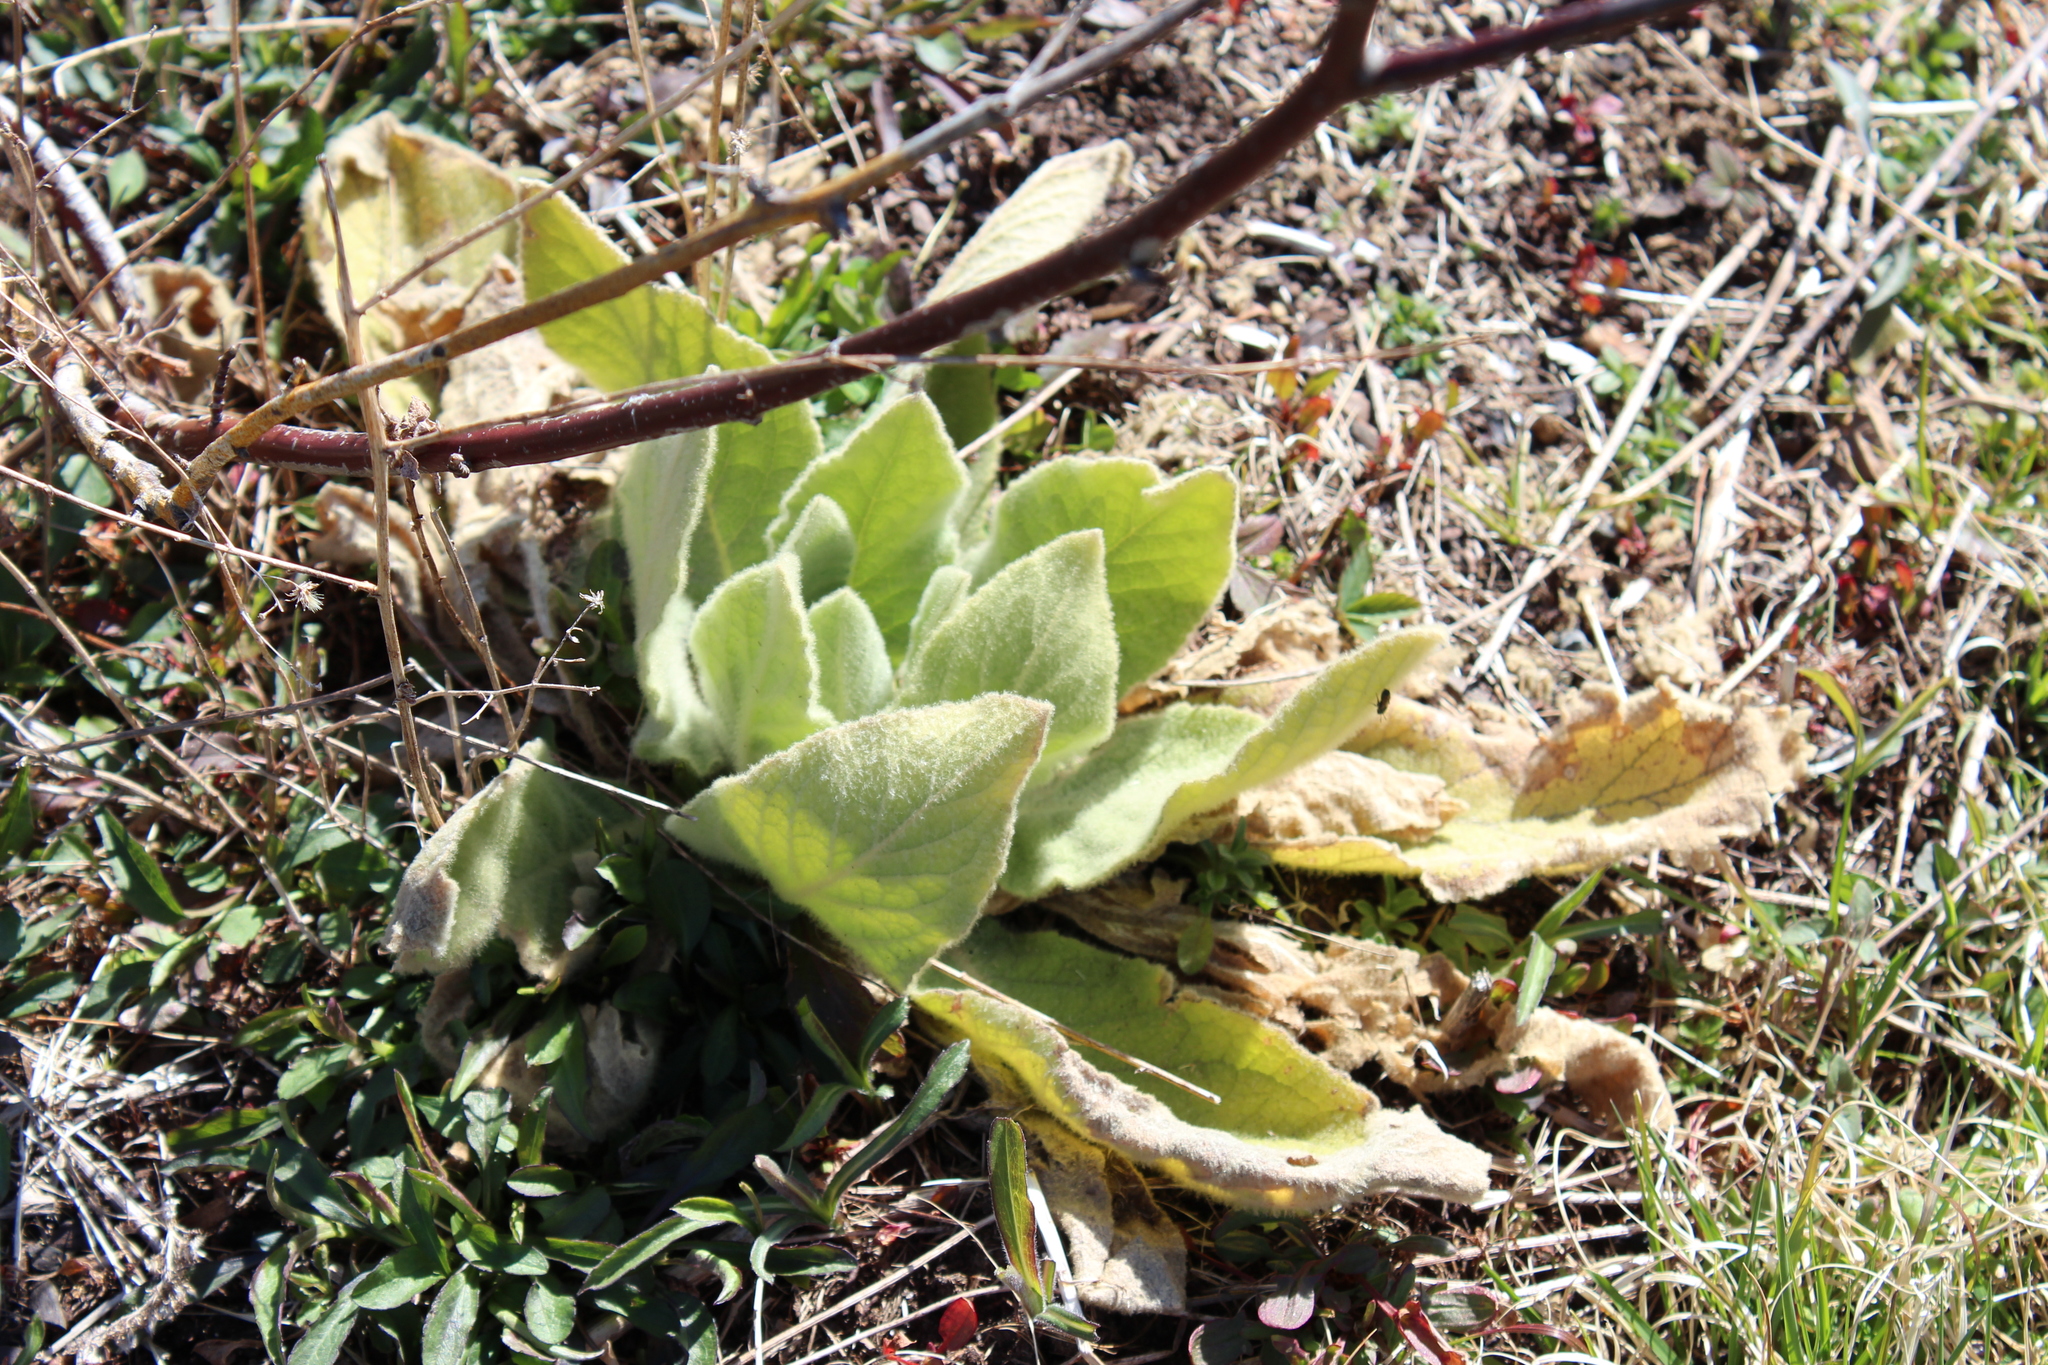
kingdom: Plantae
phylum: Tracheophyta
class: Magnoliopsida
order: Lamiales
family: Scrophulariaceae
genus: Verbascum
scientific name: Verbascum thapsus
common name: Common mullein
